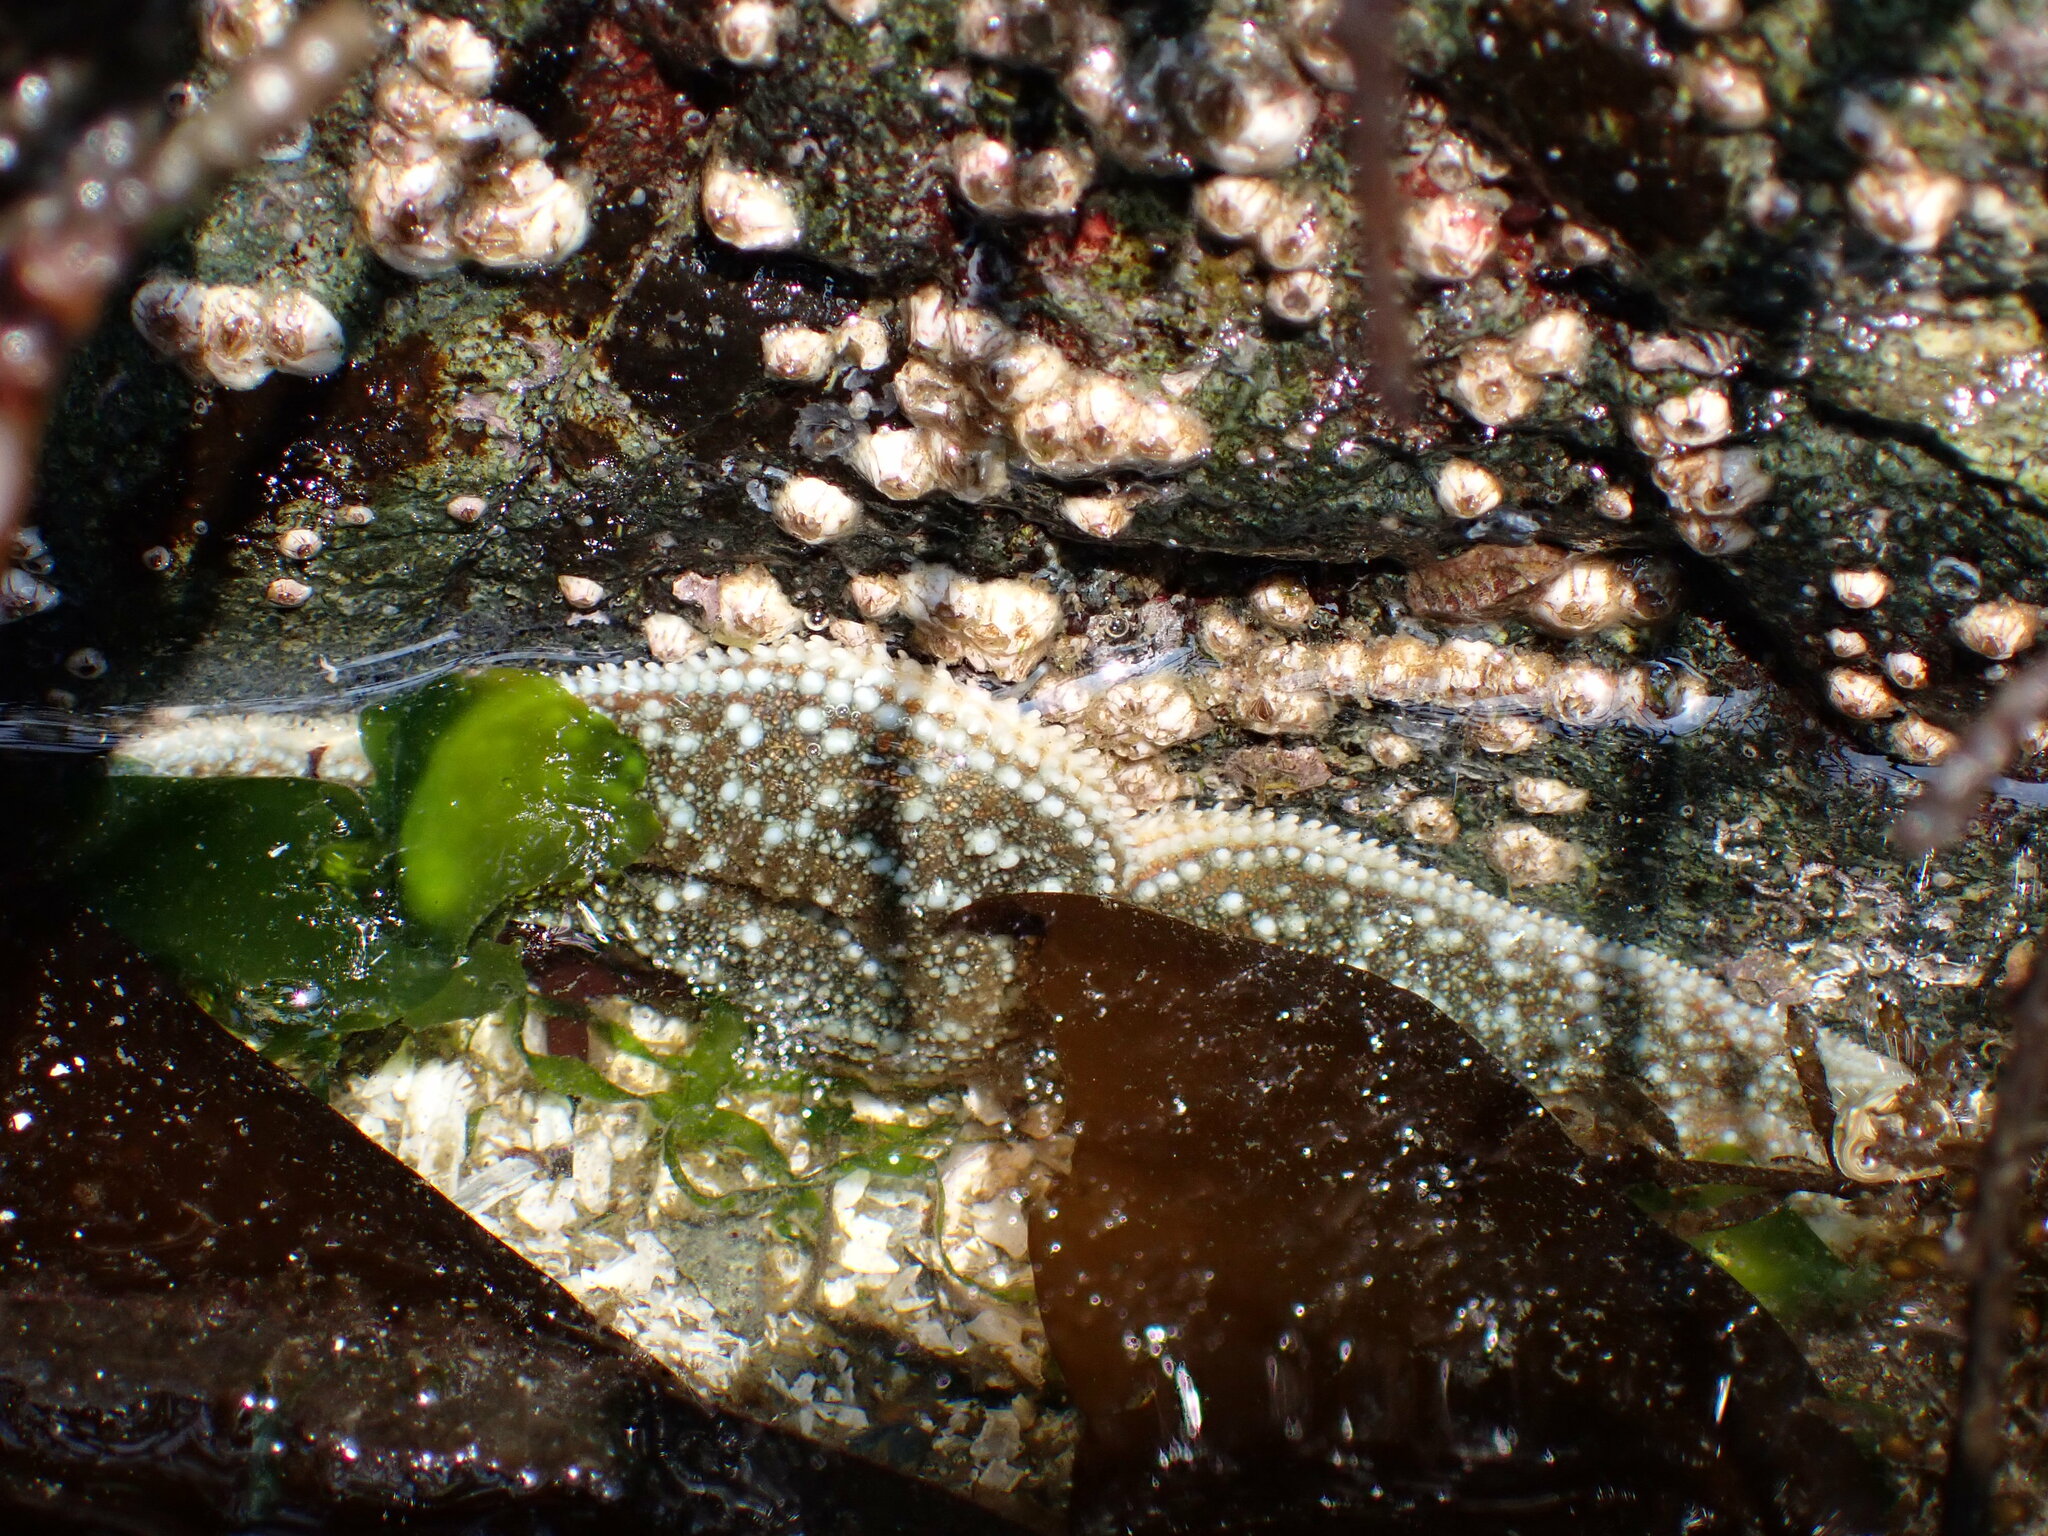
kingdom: Animalia
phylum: Echinodermata
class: Asteroidea
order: Forcipulatida
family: Asteriidae
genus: Evasterias
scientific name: Evasterias troschelii
